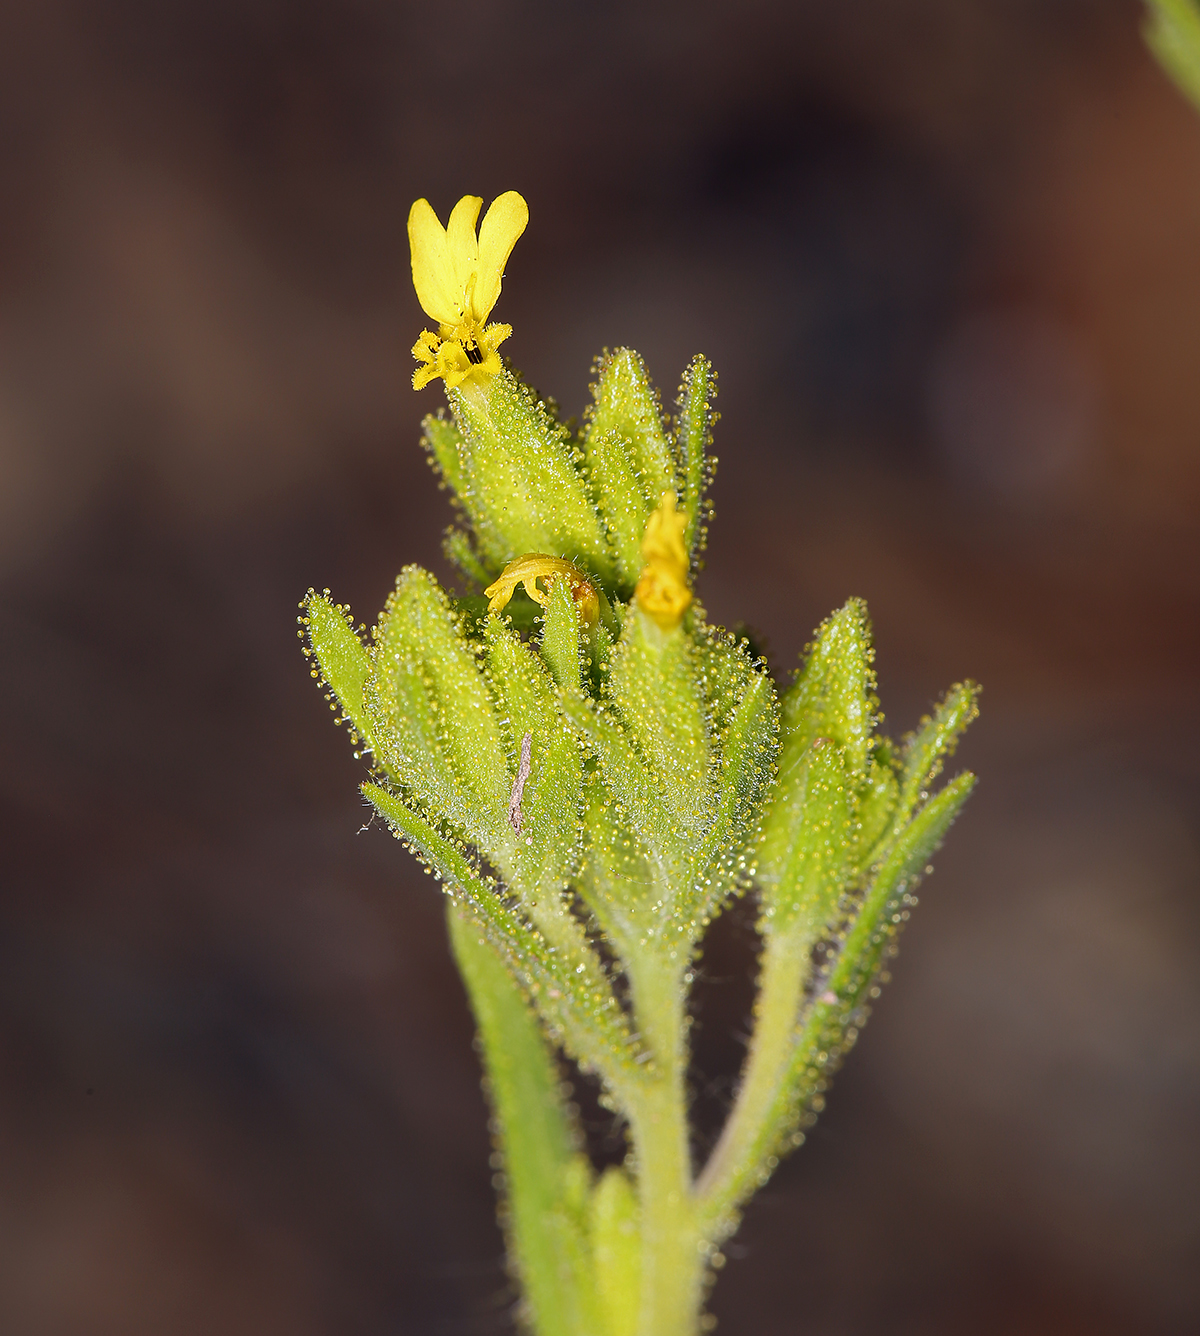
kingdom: Plantae
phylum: Tracheophyta
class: Magnoliopsida
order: Asterales
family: Asteraceae
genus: Madia
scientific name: Madia glomerata
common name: Mountain tarweed
